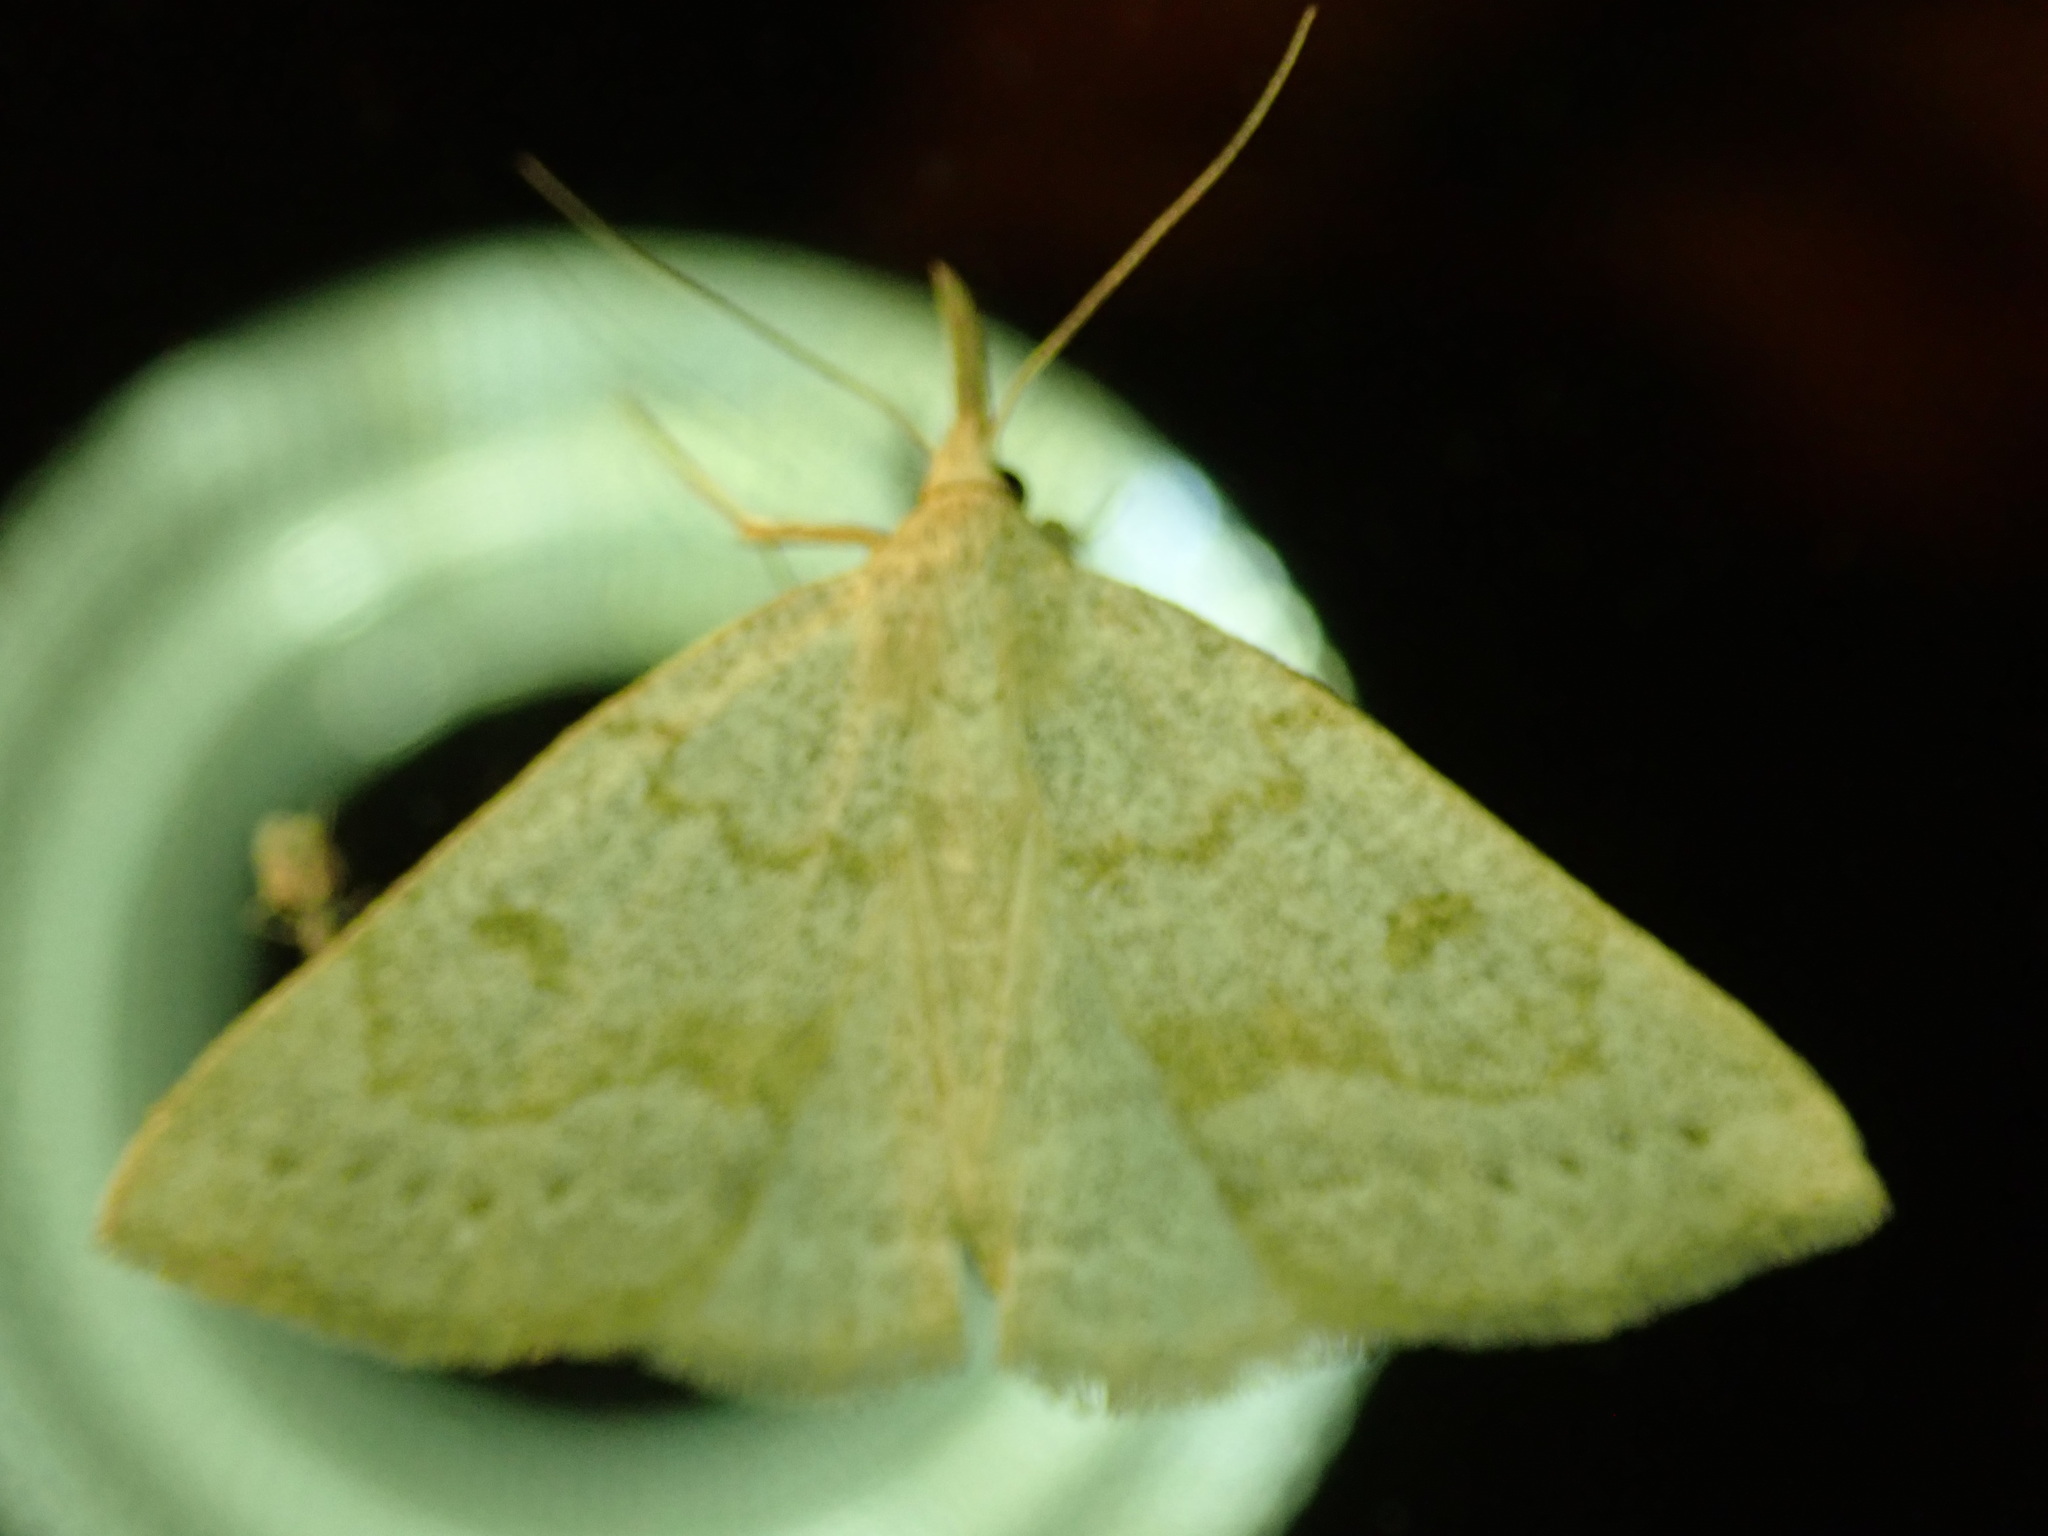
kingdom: Animalia
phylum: Arthropoda
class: Insecta
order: Lepidoptera
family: Erebidae
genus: Macrochilo
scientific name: Macrochilo morbidalis
